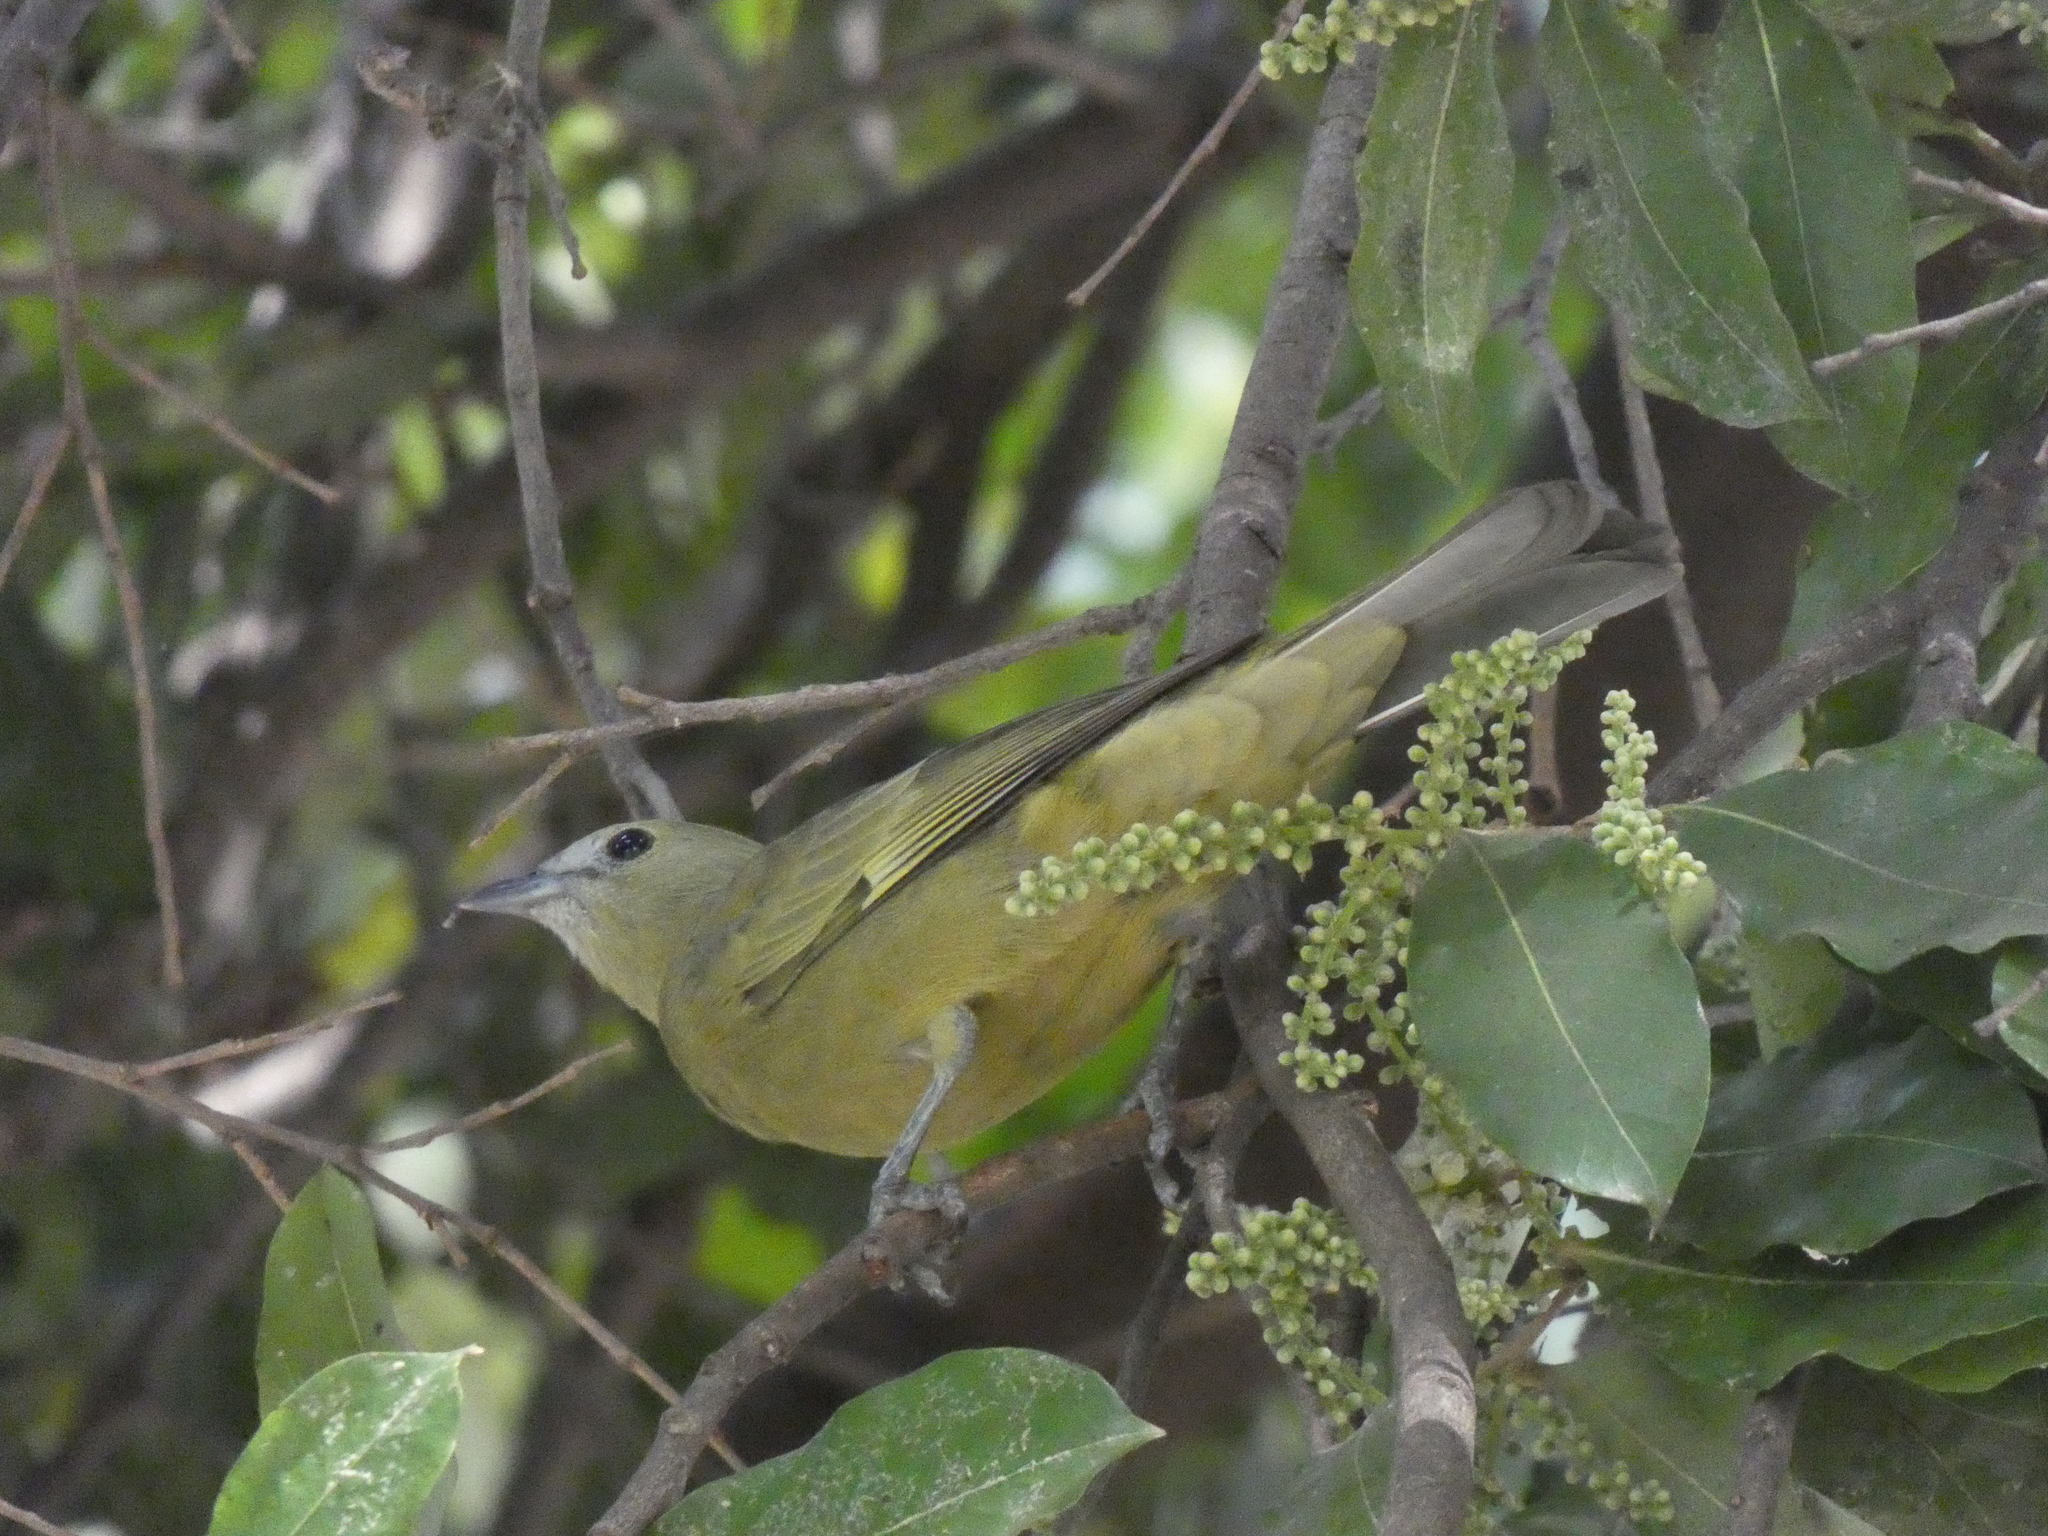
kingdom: Animalia
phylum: Chordata
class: Aves
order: Passeriformes
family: Thraupidae
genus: Thraupis
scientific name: Thraupis palmarum
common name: Palm tanager
